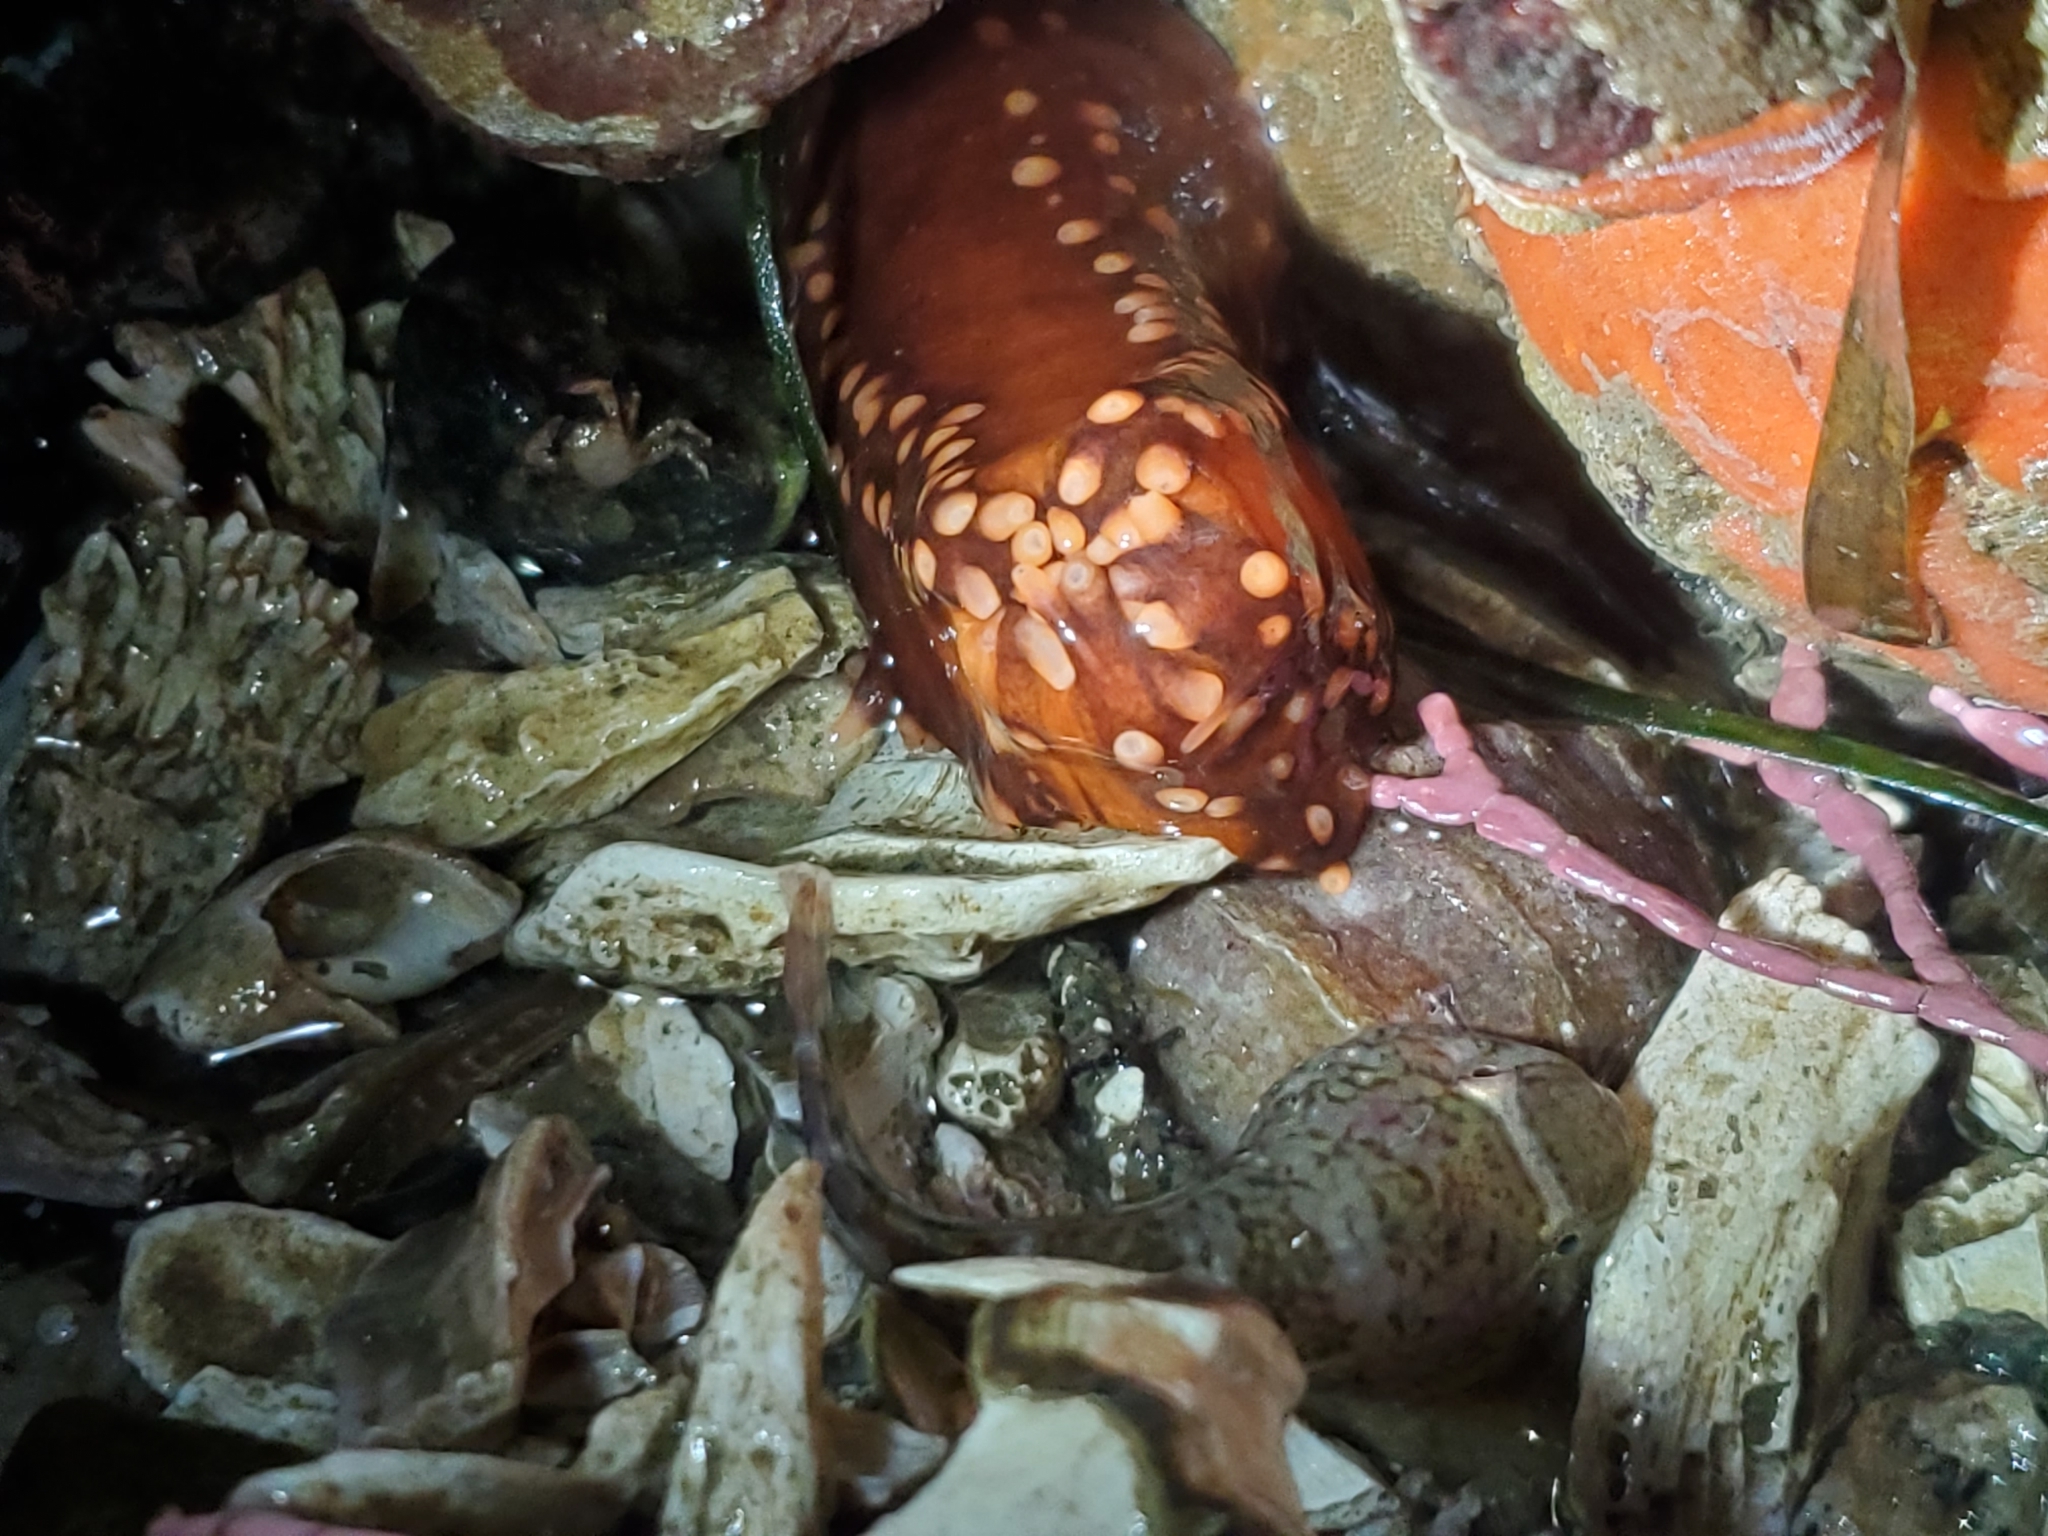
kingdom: Animalia
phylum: Echinodermata
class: Holothuroidea
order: Dendrochirotida
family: Cucumariidae
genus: Cucumaria
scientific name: Cucumaria miniata
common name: Orange sea cucumber
